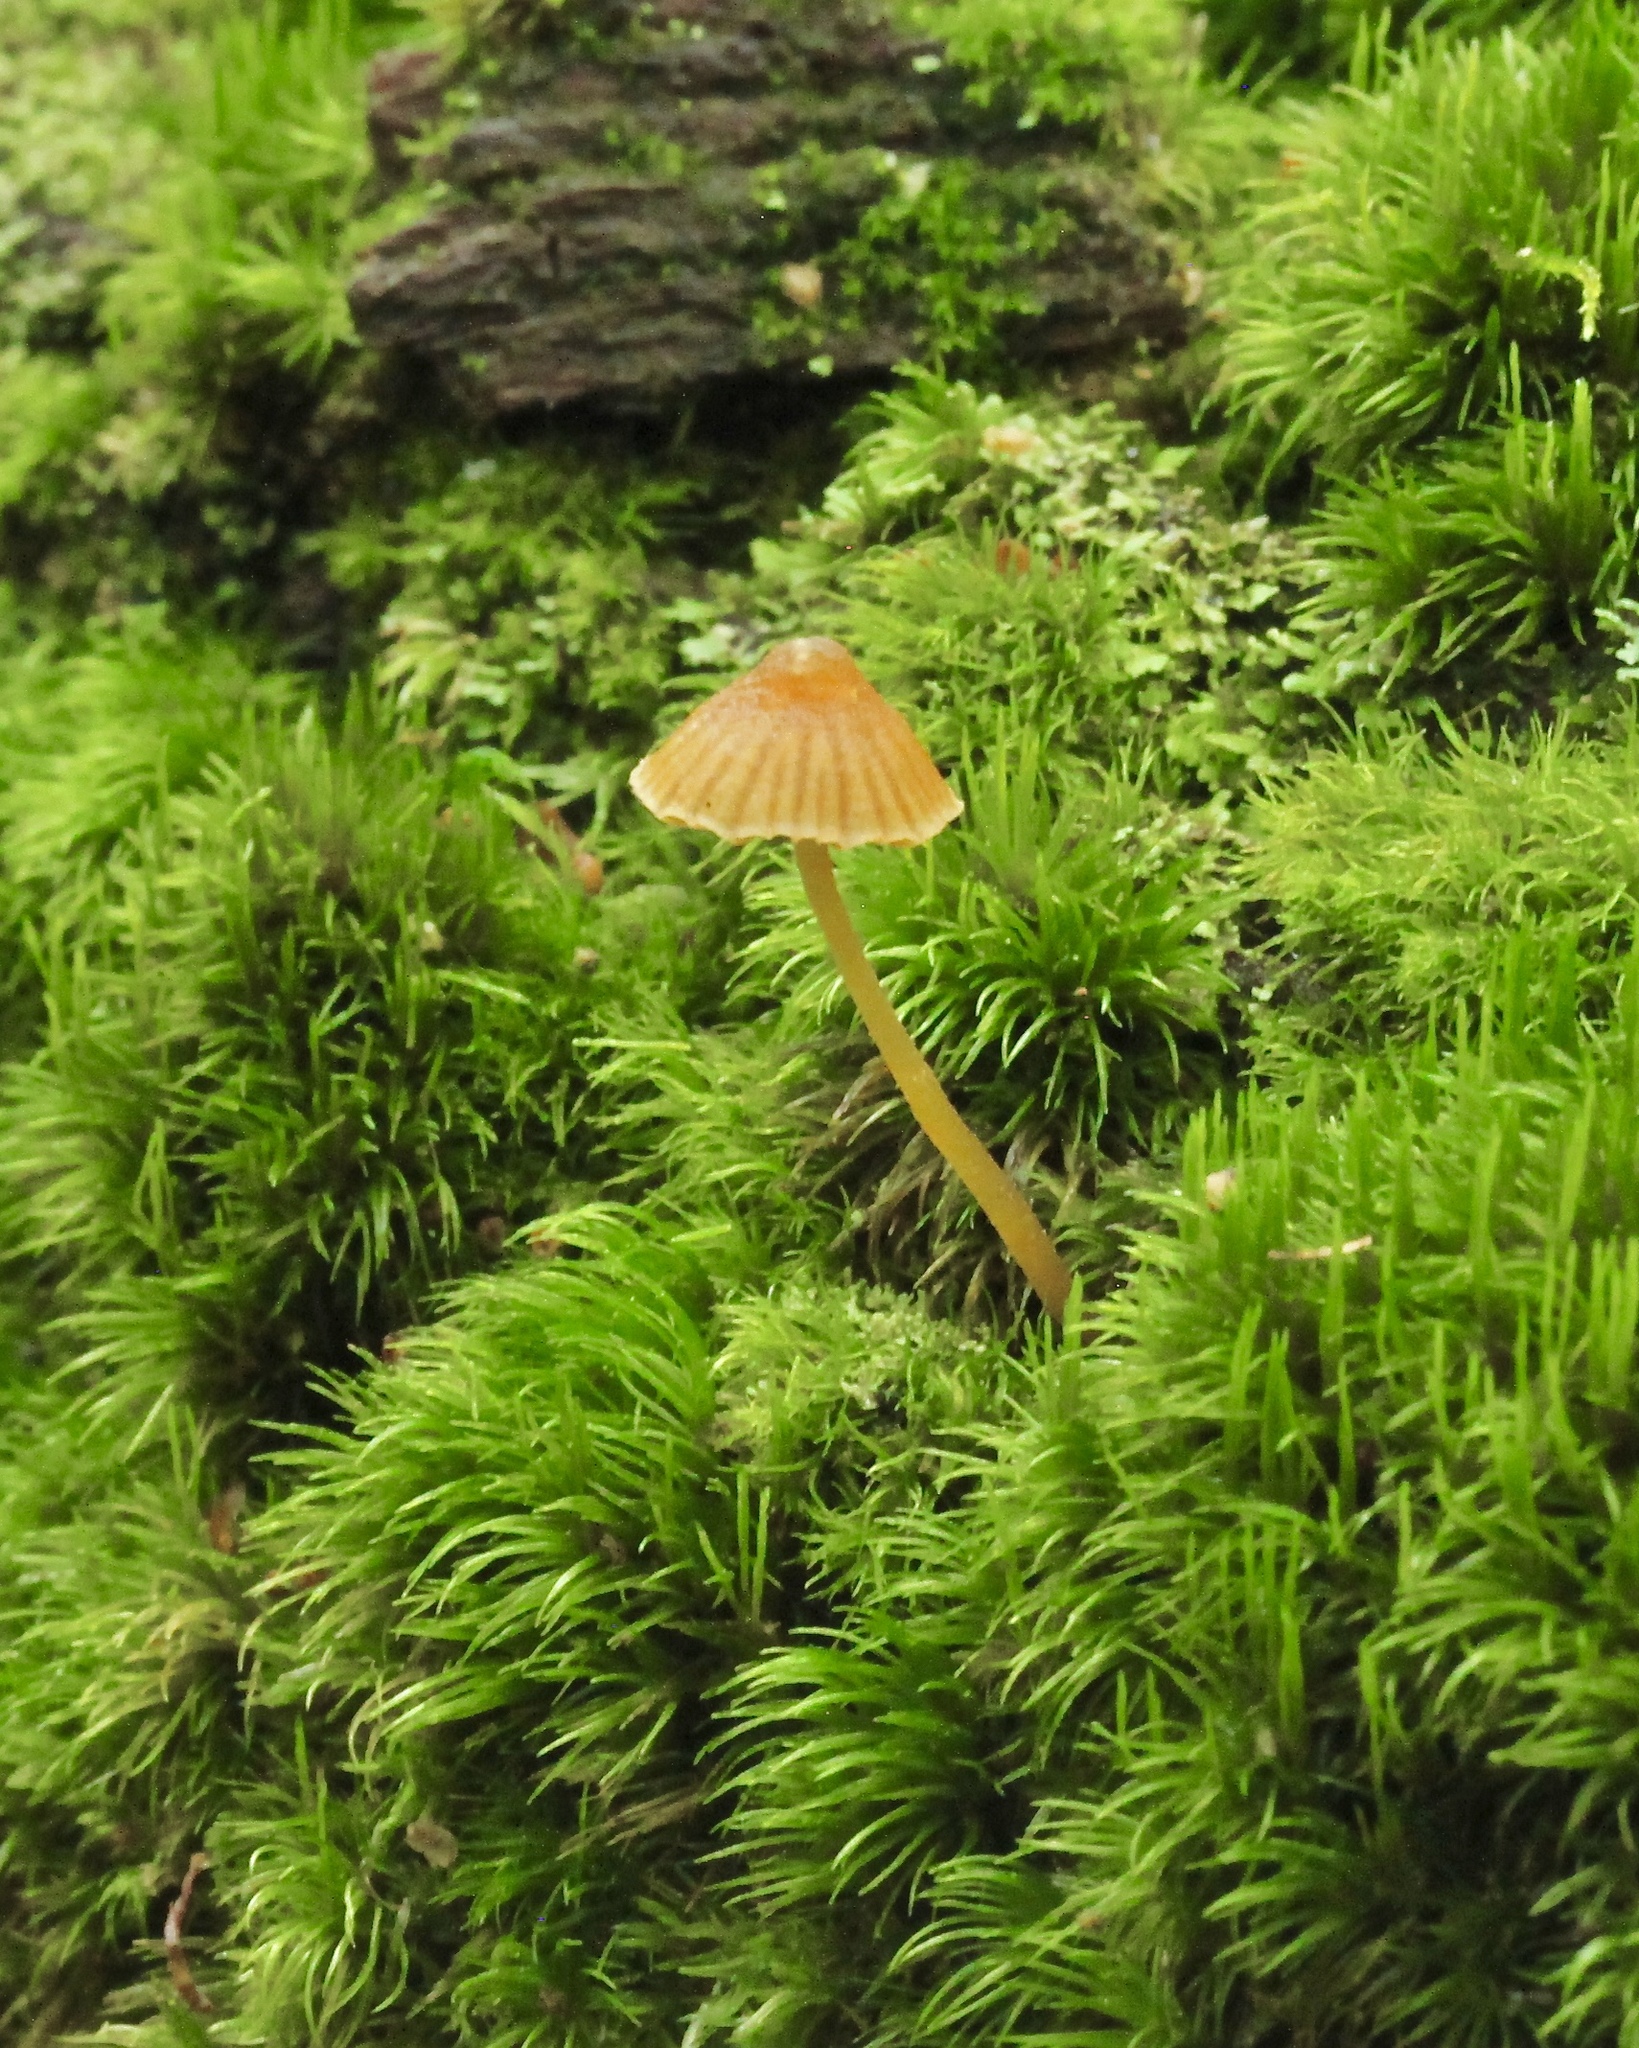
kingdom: Fungi
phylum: Basidiomycota
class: Agaricomycetes
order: Agaricales
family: Hymenogastraceae
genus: Galerina
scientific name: Galerina vittiformis
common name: Hairy leg bell
